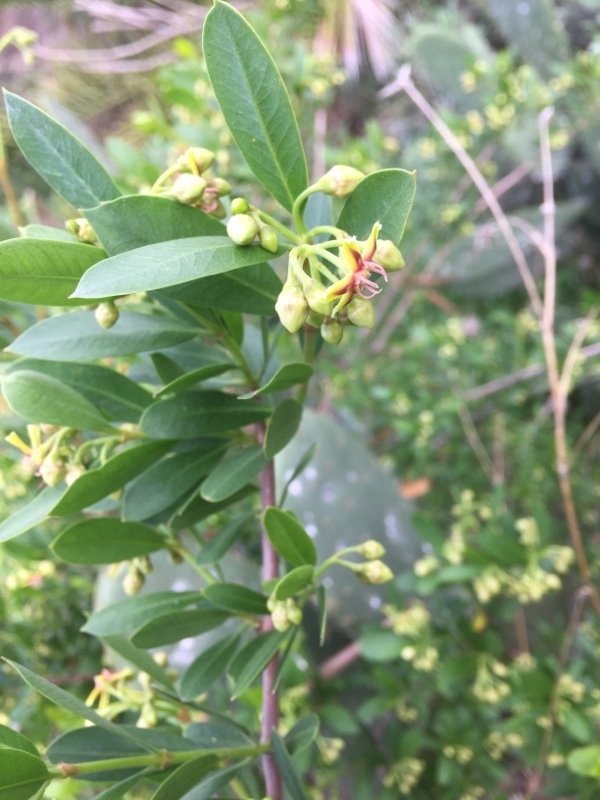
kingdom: Plantae
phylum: Tracheophyta
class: Magnoliopsida
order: Gentianales
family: Apocynaceae
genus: Periploca
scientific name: Periploca laevigata
